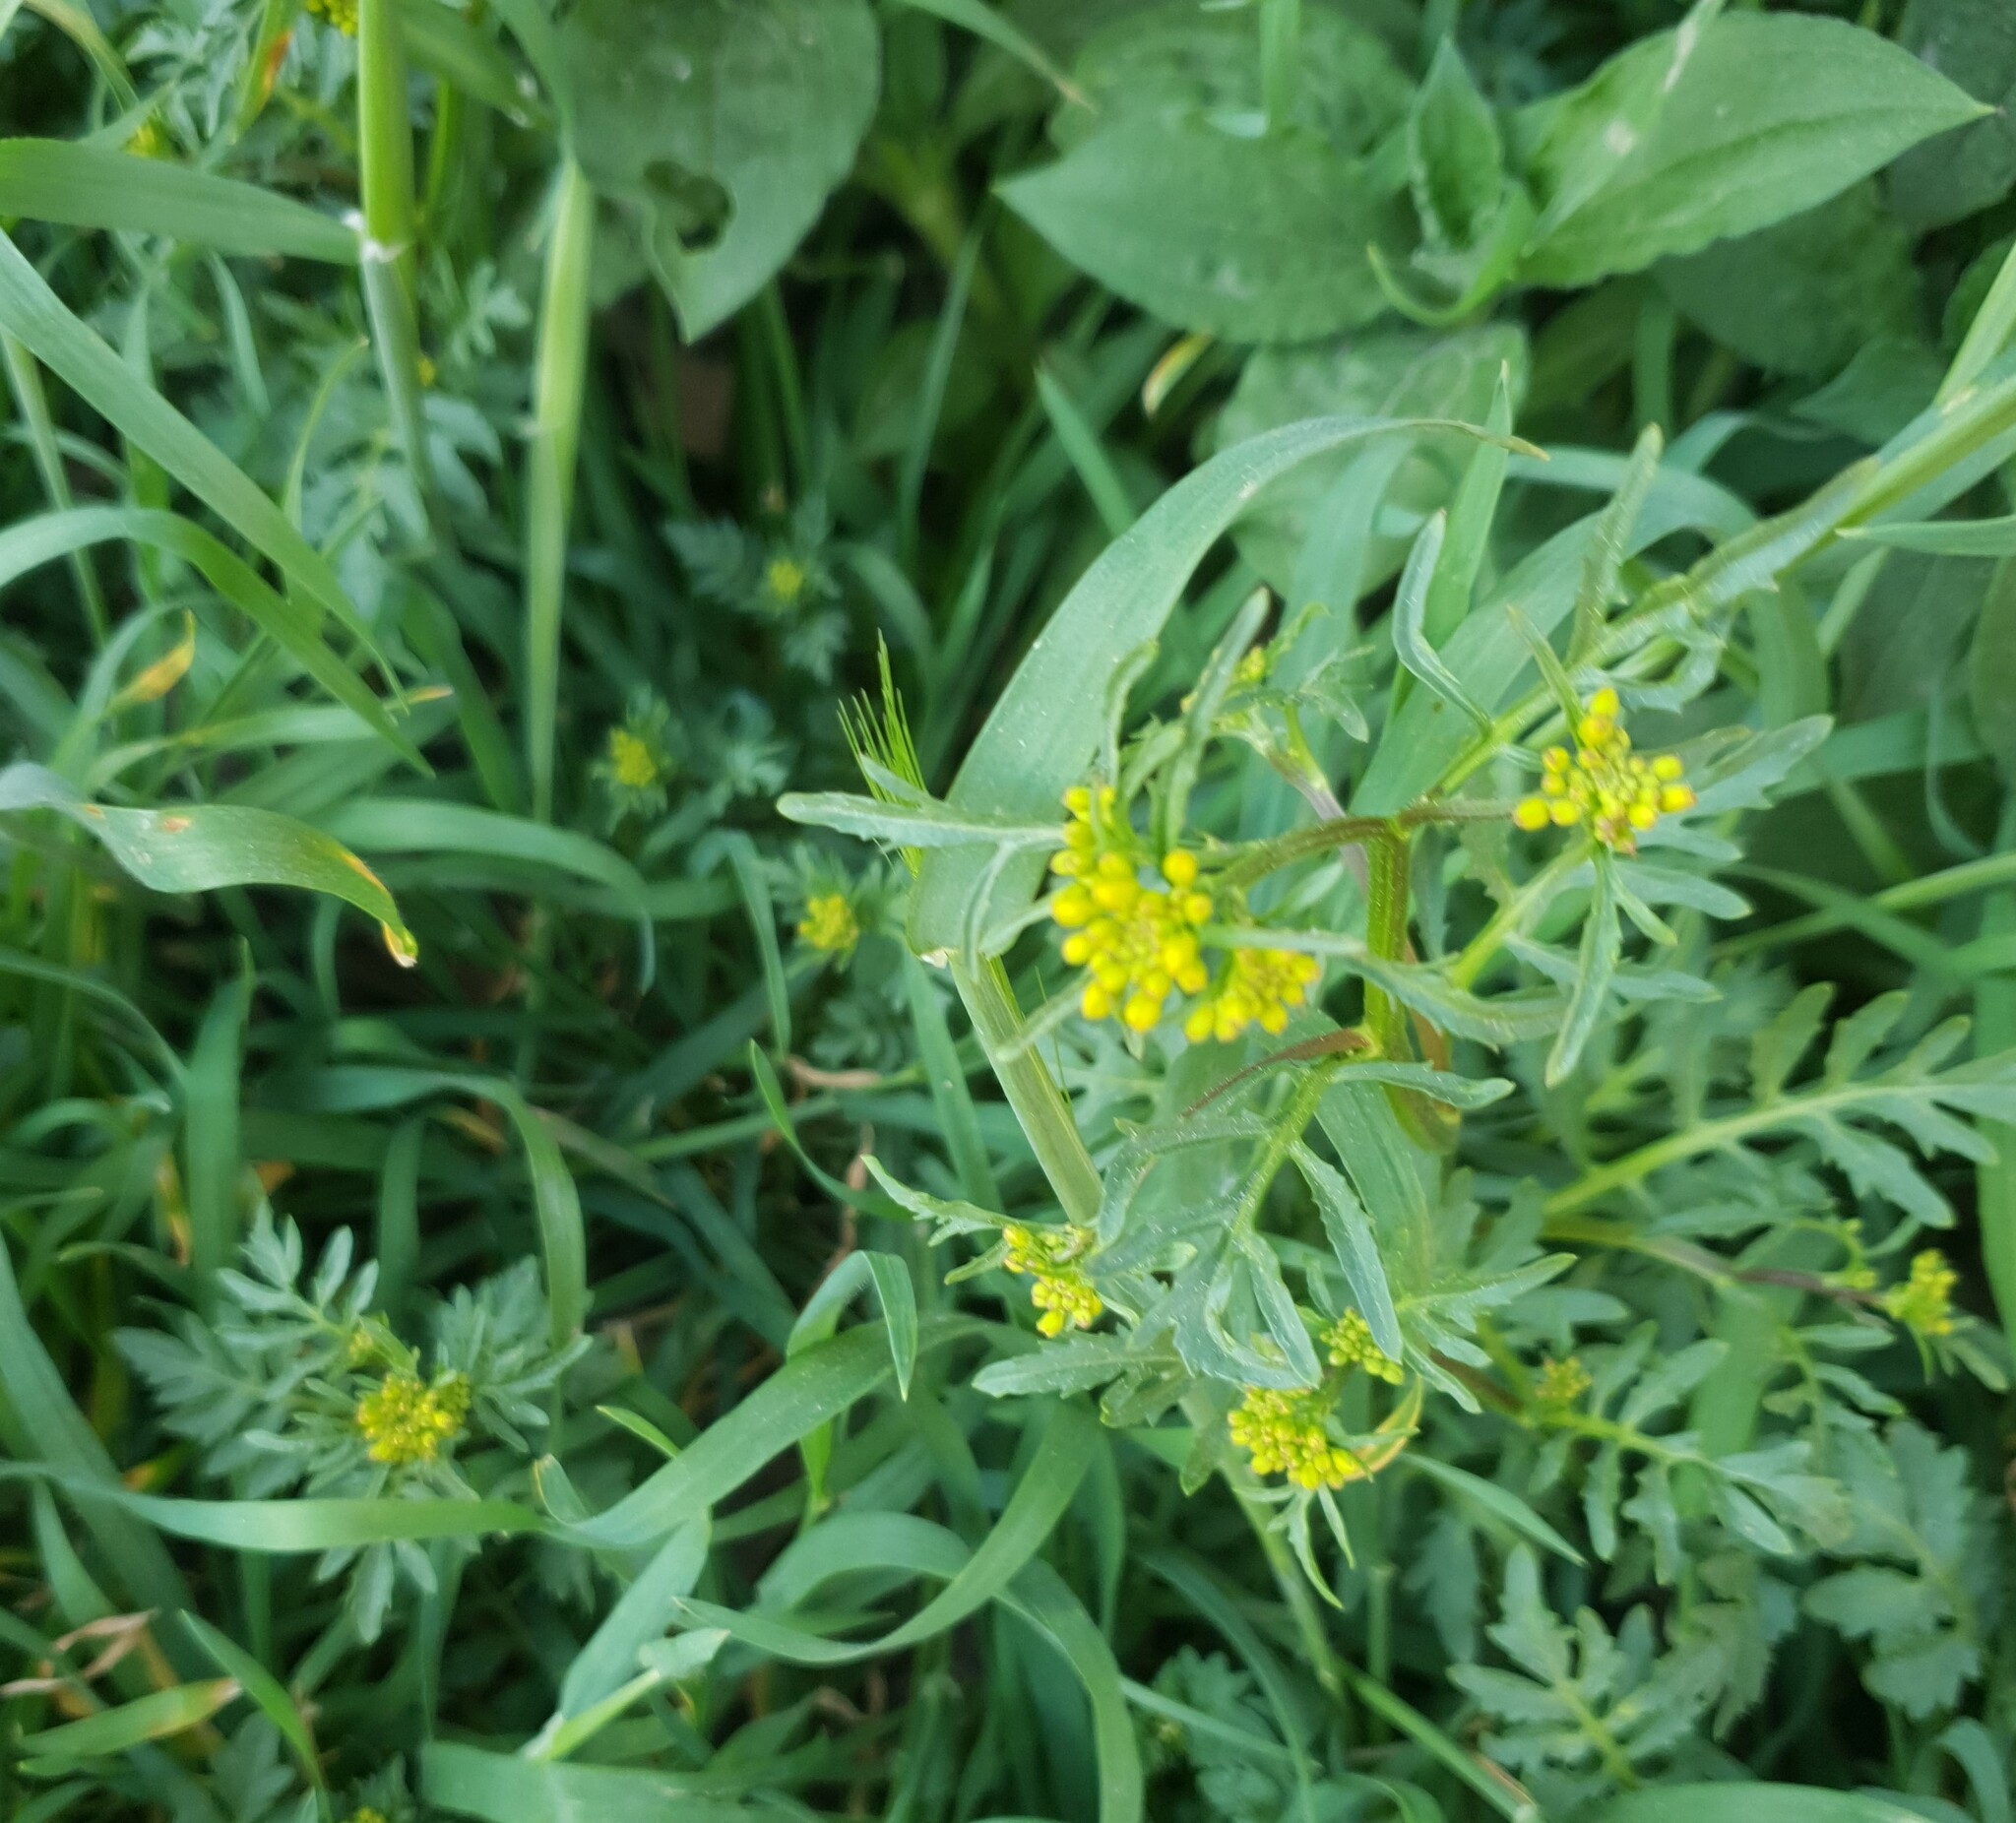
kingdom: Plantae
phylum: Tracheophyta
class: Magnoliopsida
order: Brassicales
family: Brassicaceae
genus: Rorippa
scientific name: Rorippa sylvestris
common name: Creeping yellowcress
